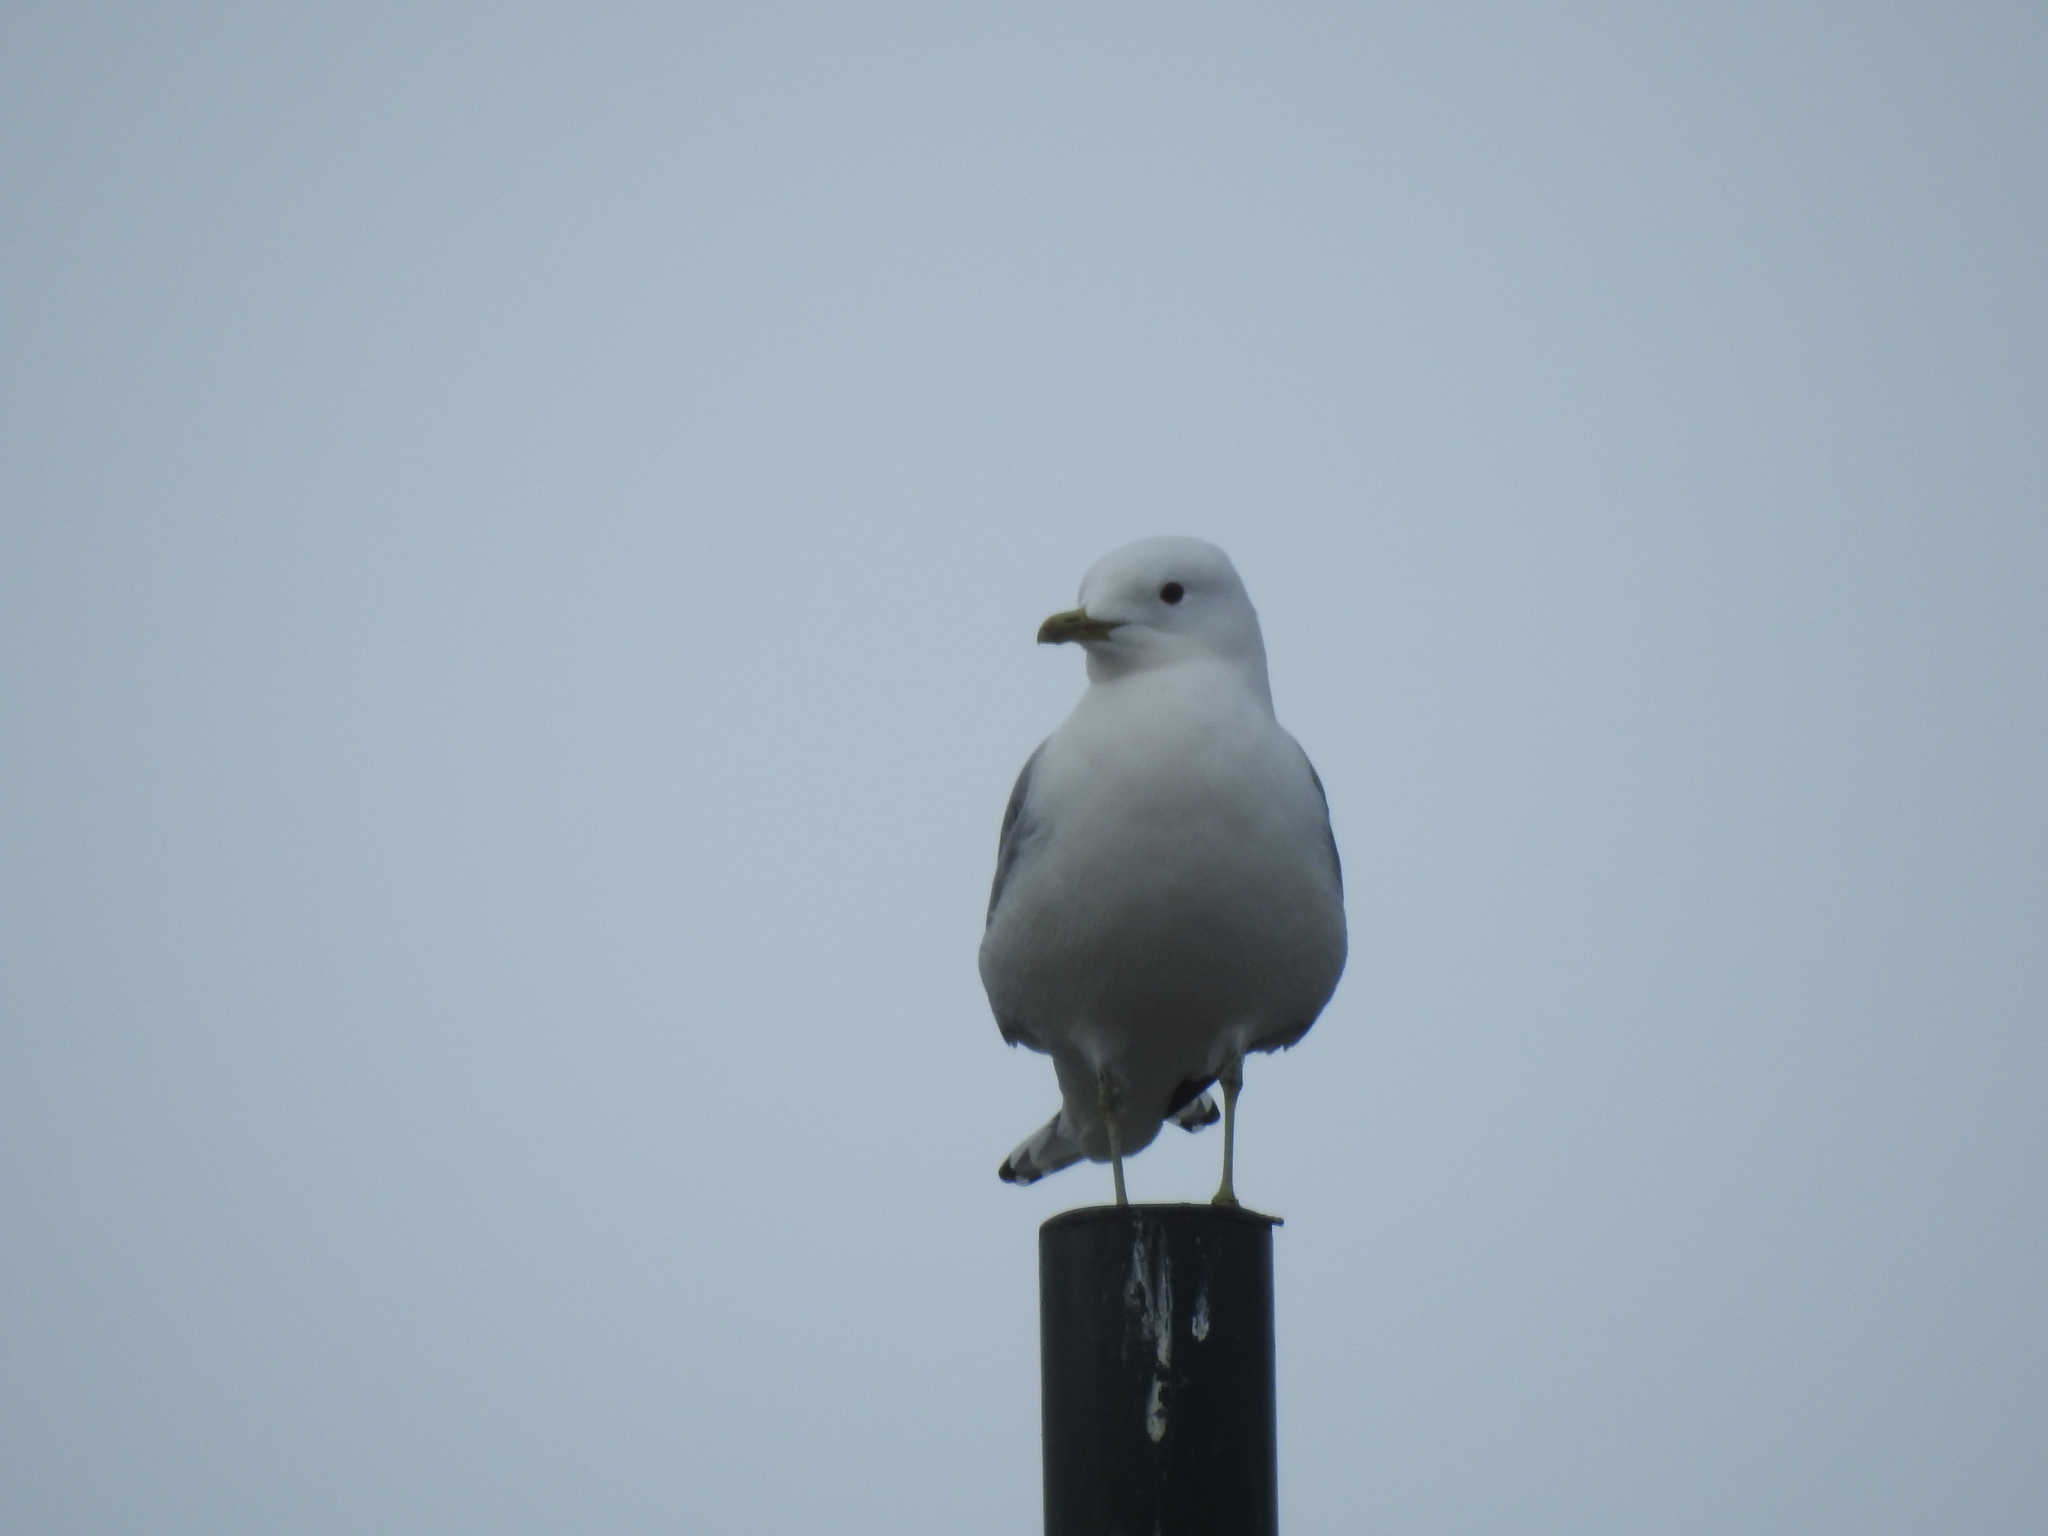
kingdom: Animalia
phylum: Chordata
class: Aves
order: Charadriiformes
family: Laridae
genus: Larus
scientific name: Larus canus
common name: Mew gull
